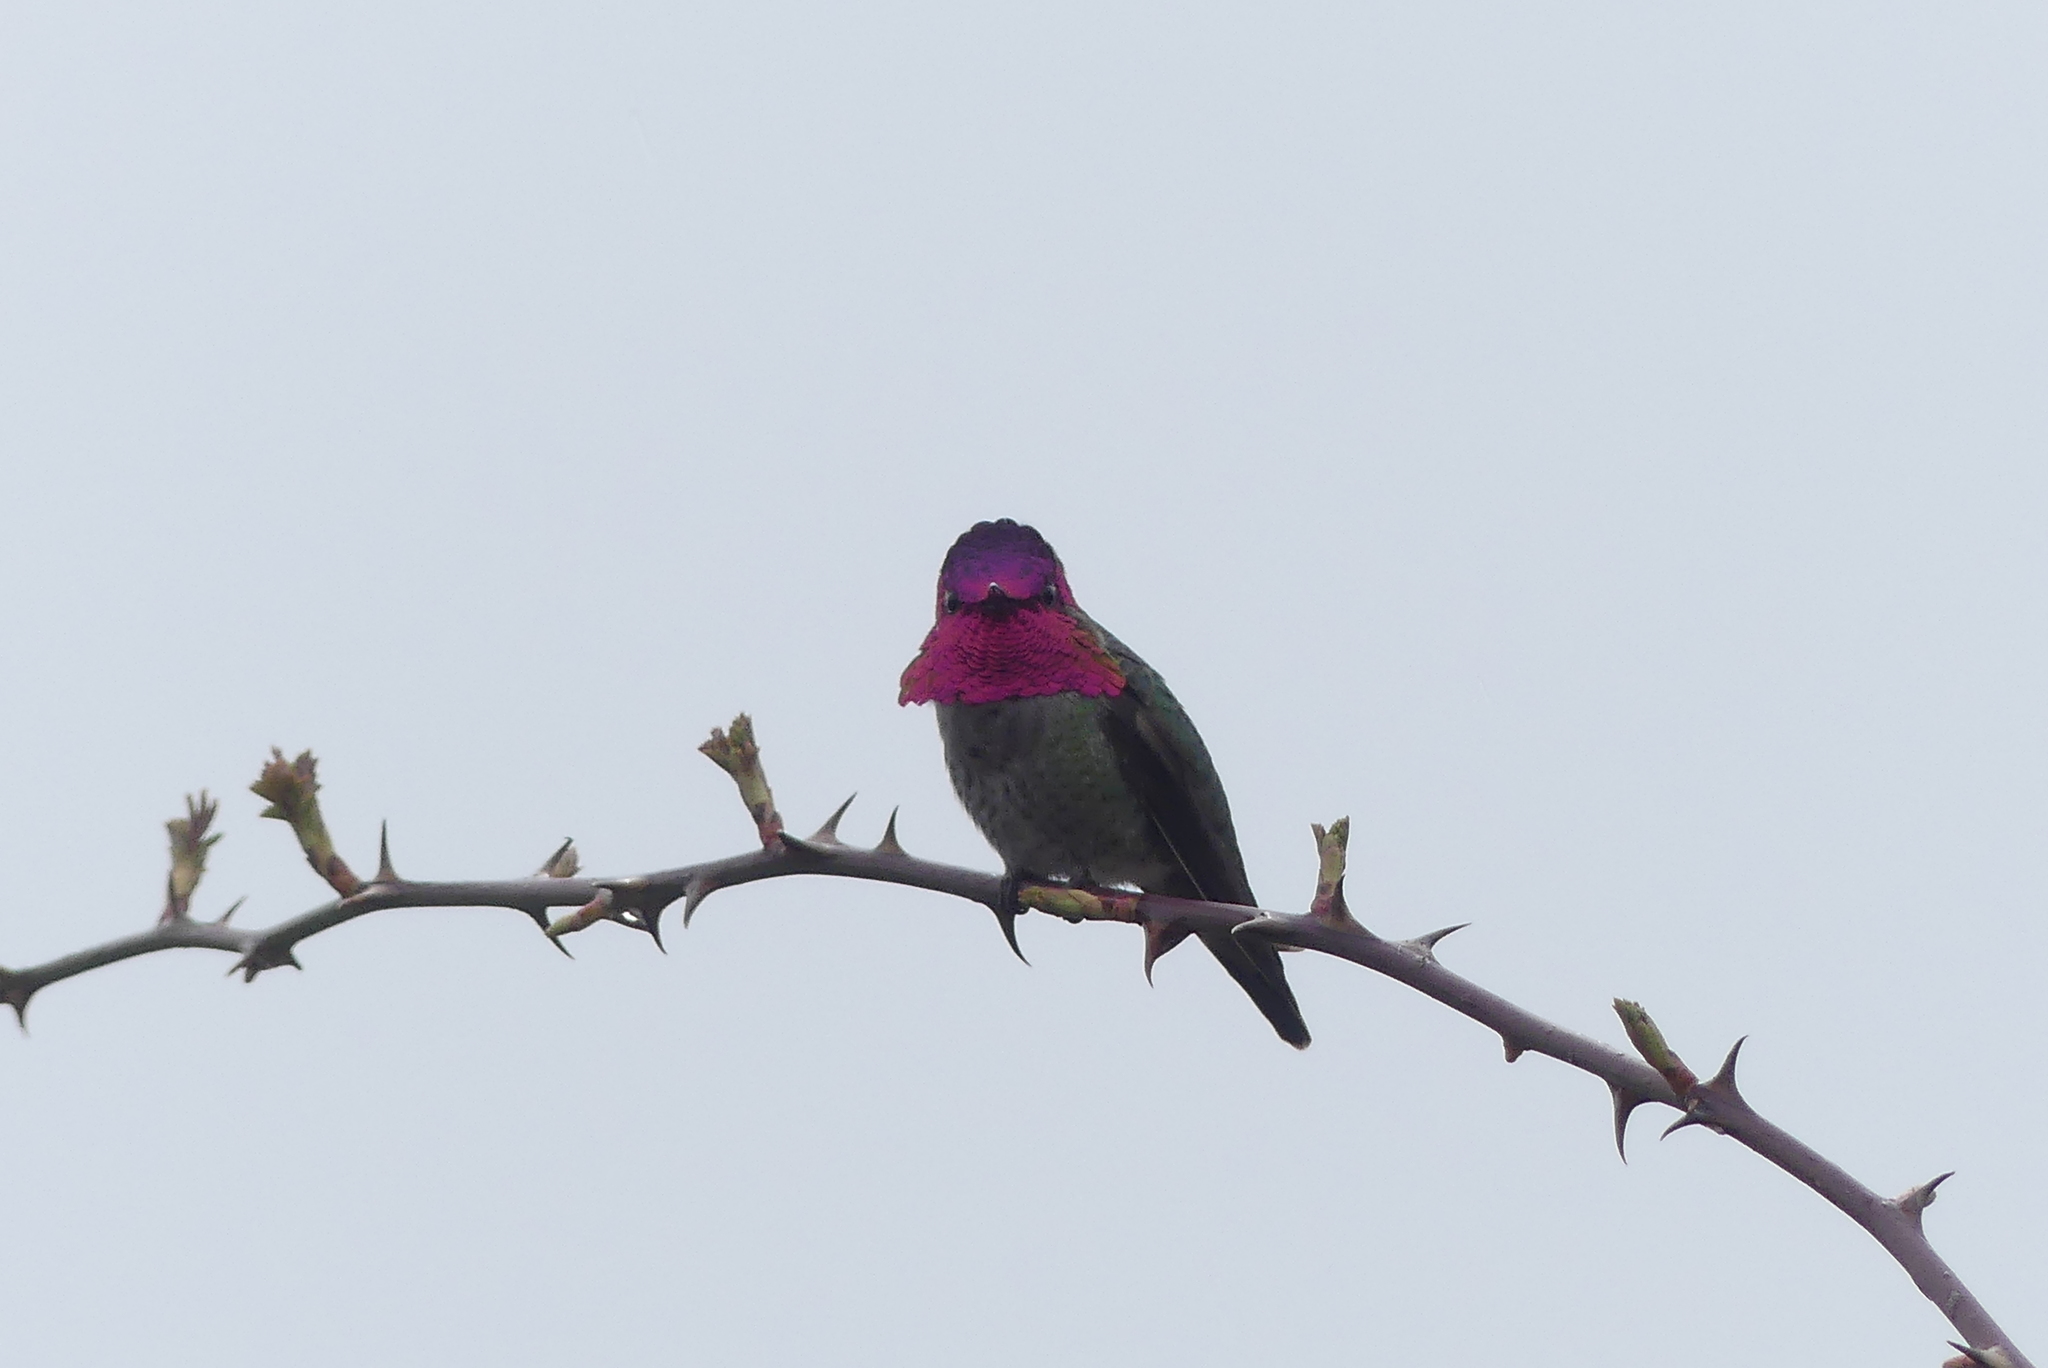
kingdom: Animalia
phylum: Chordata
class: Aves
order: Apodiformes
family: Trochilidae
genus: Calypte
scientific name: Calypte anna
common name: Anna's hummingbird
